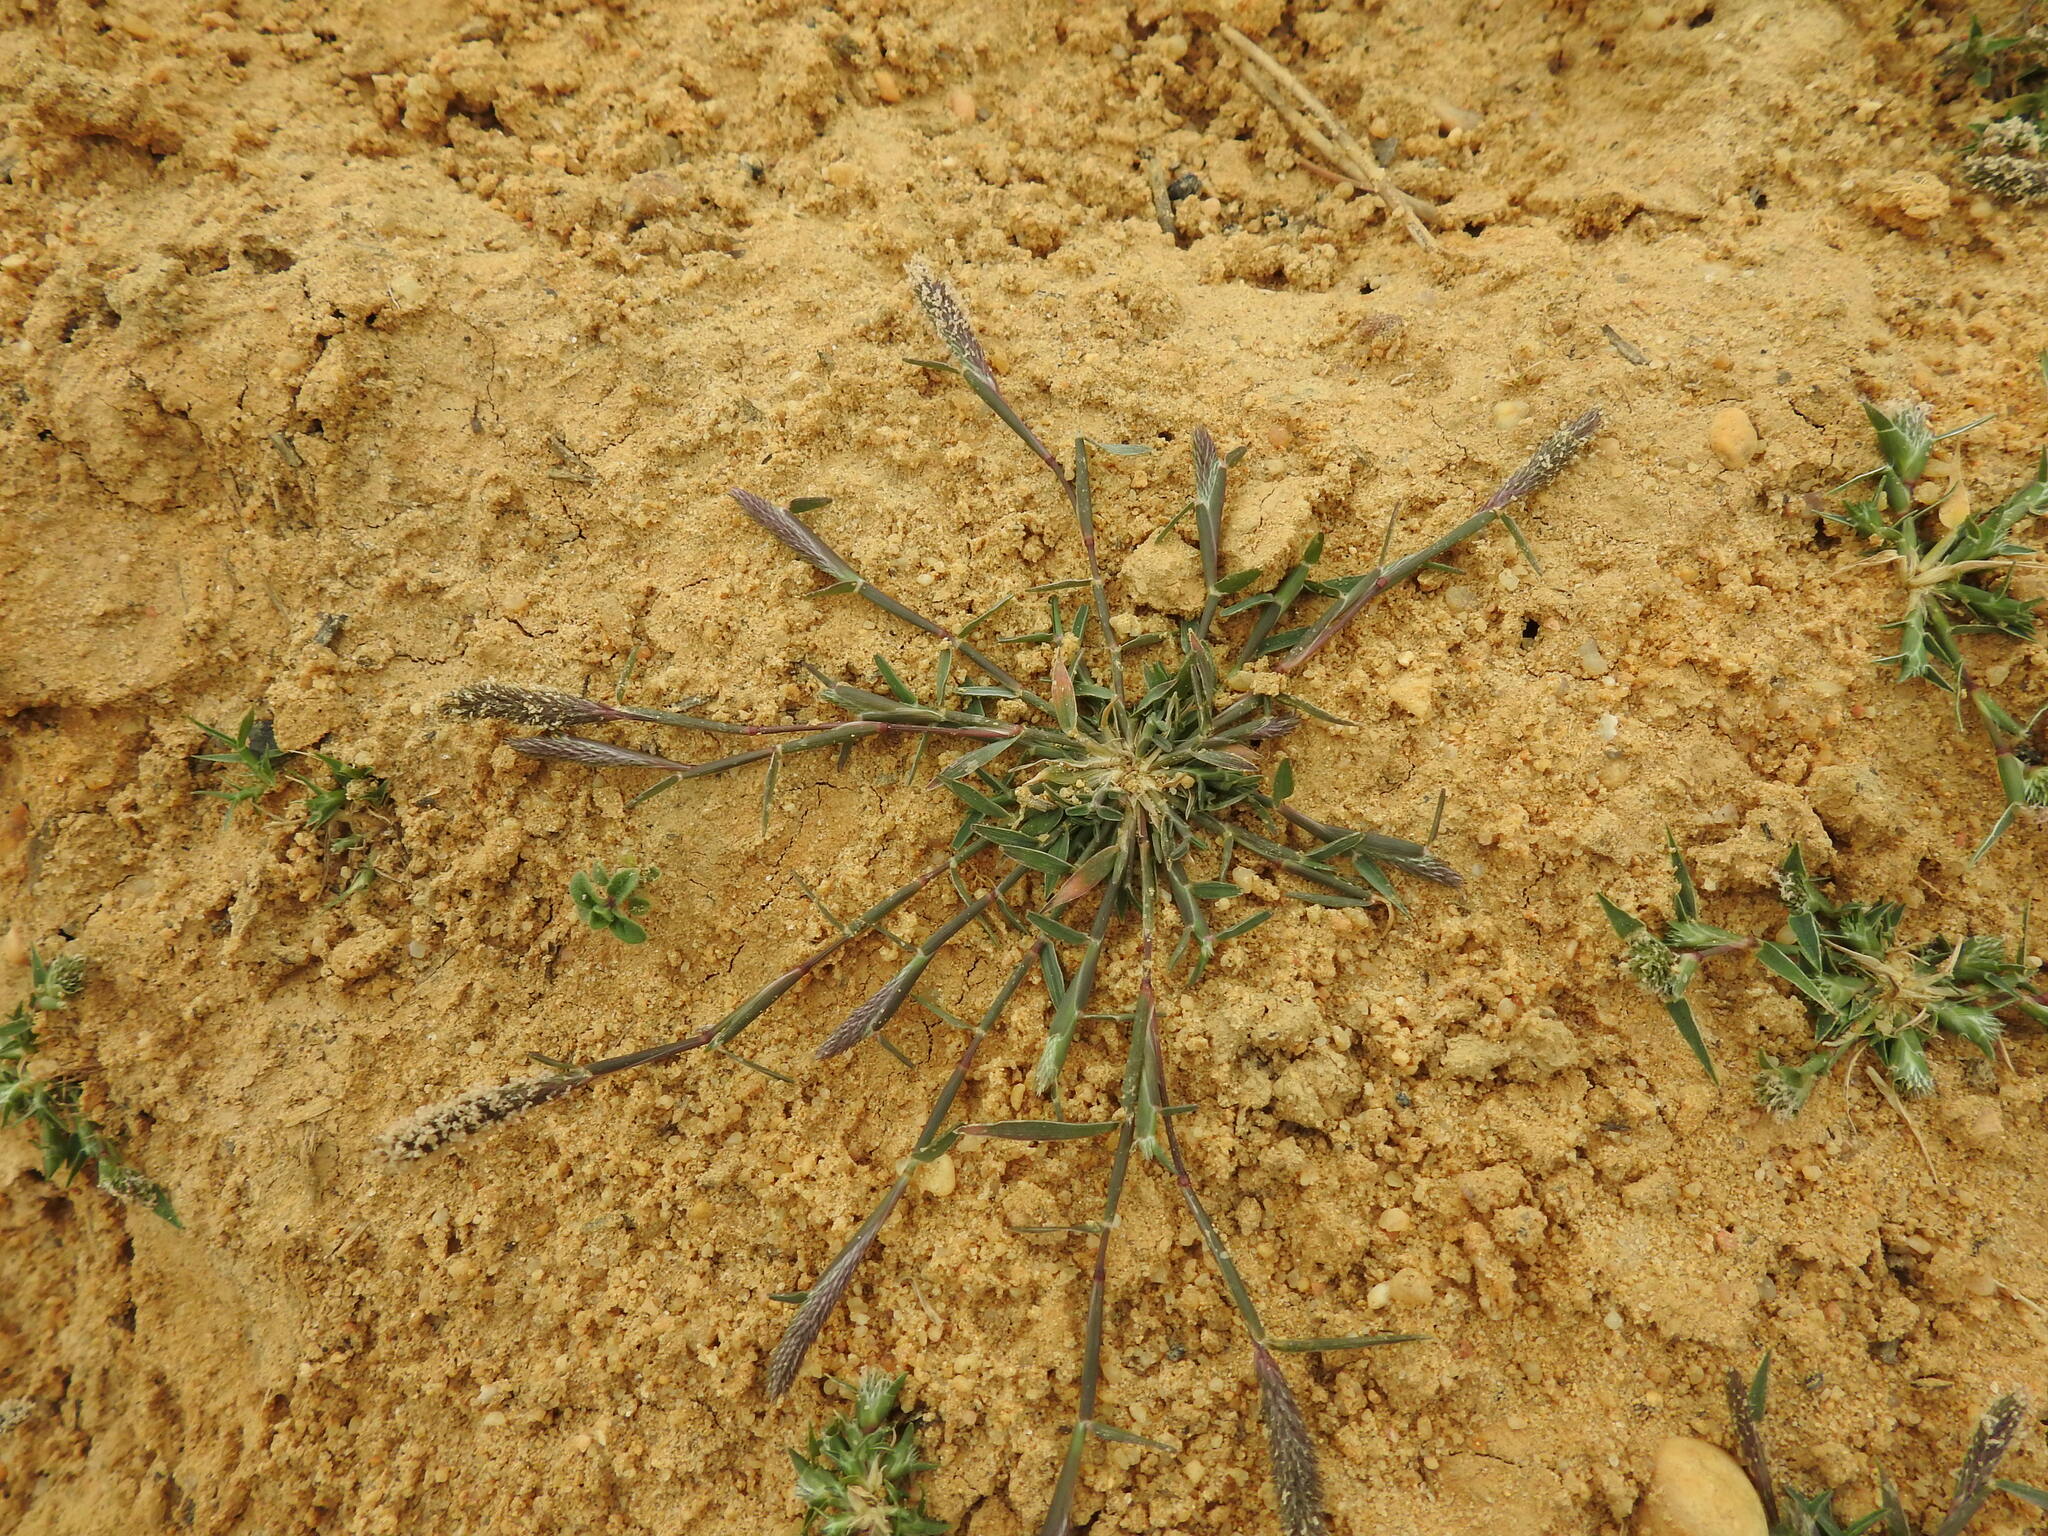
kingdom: Plantae
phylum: Tracheophyta
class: Liliopsida
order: Poales
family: Poaceae
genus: Sporobolus
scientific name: Sporobolus alopecuroides
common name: Foxtail pricklegrass
